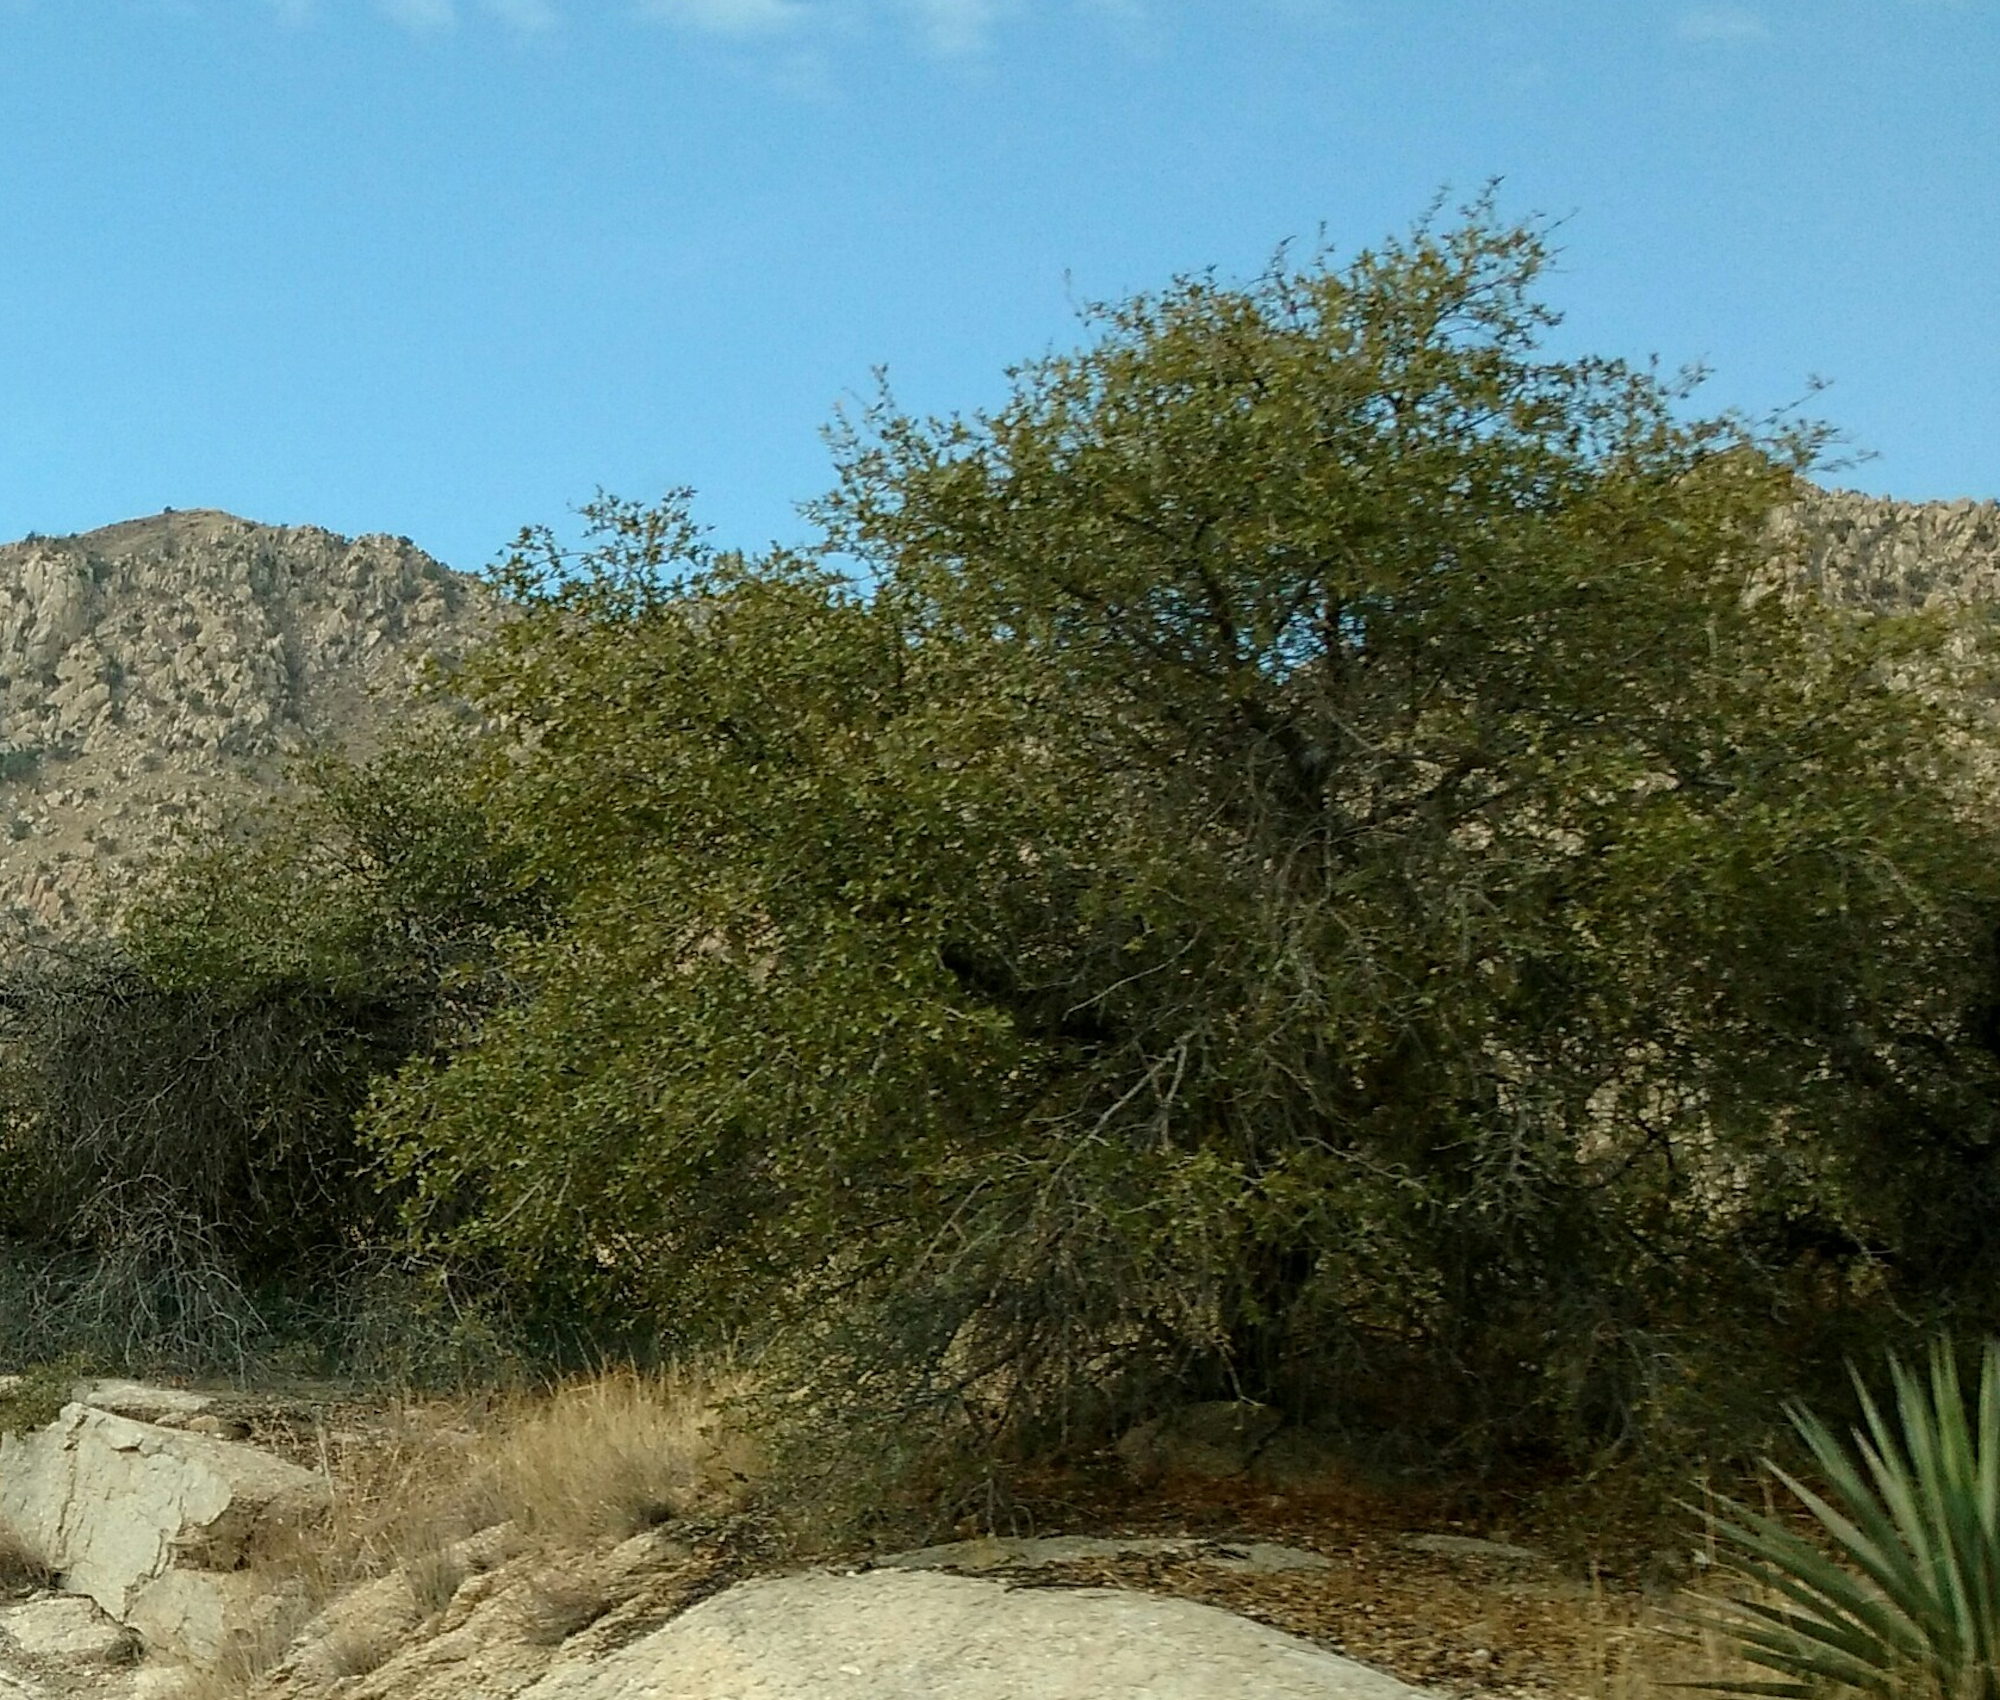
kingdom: Plantae
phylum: Tracheophyta
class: Magnoliopsida
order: Fagales
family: Fagaceae
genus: Quercus
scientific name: Quercus emoryi
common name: Emory oak
